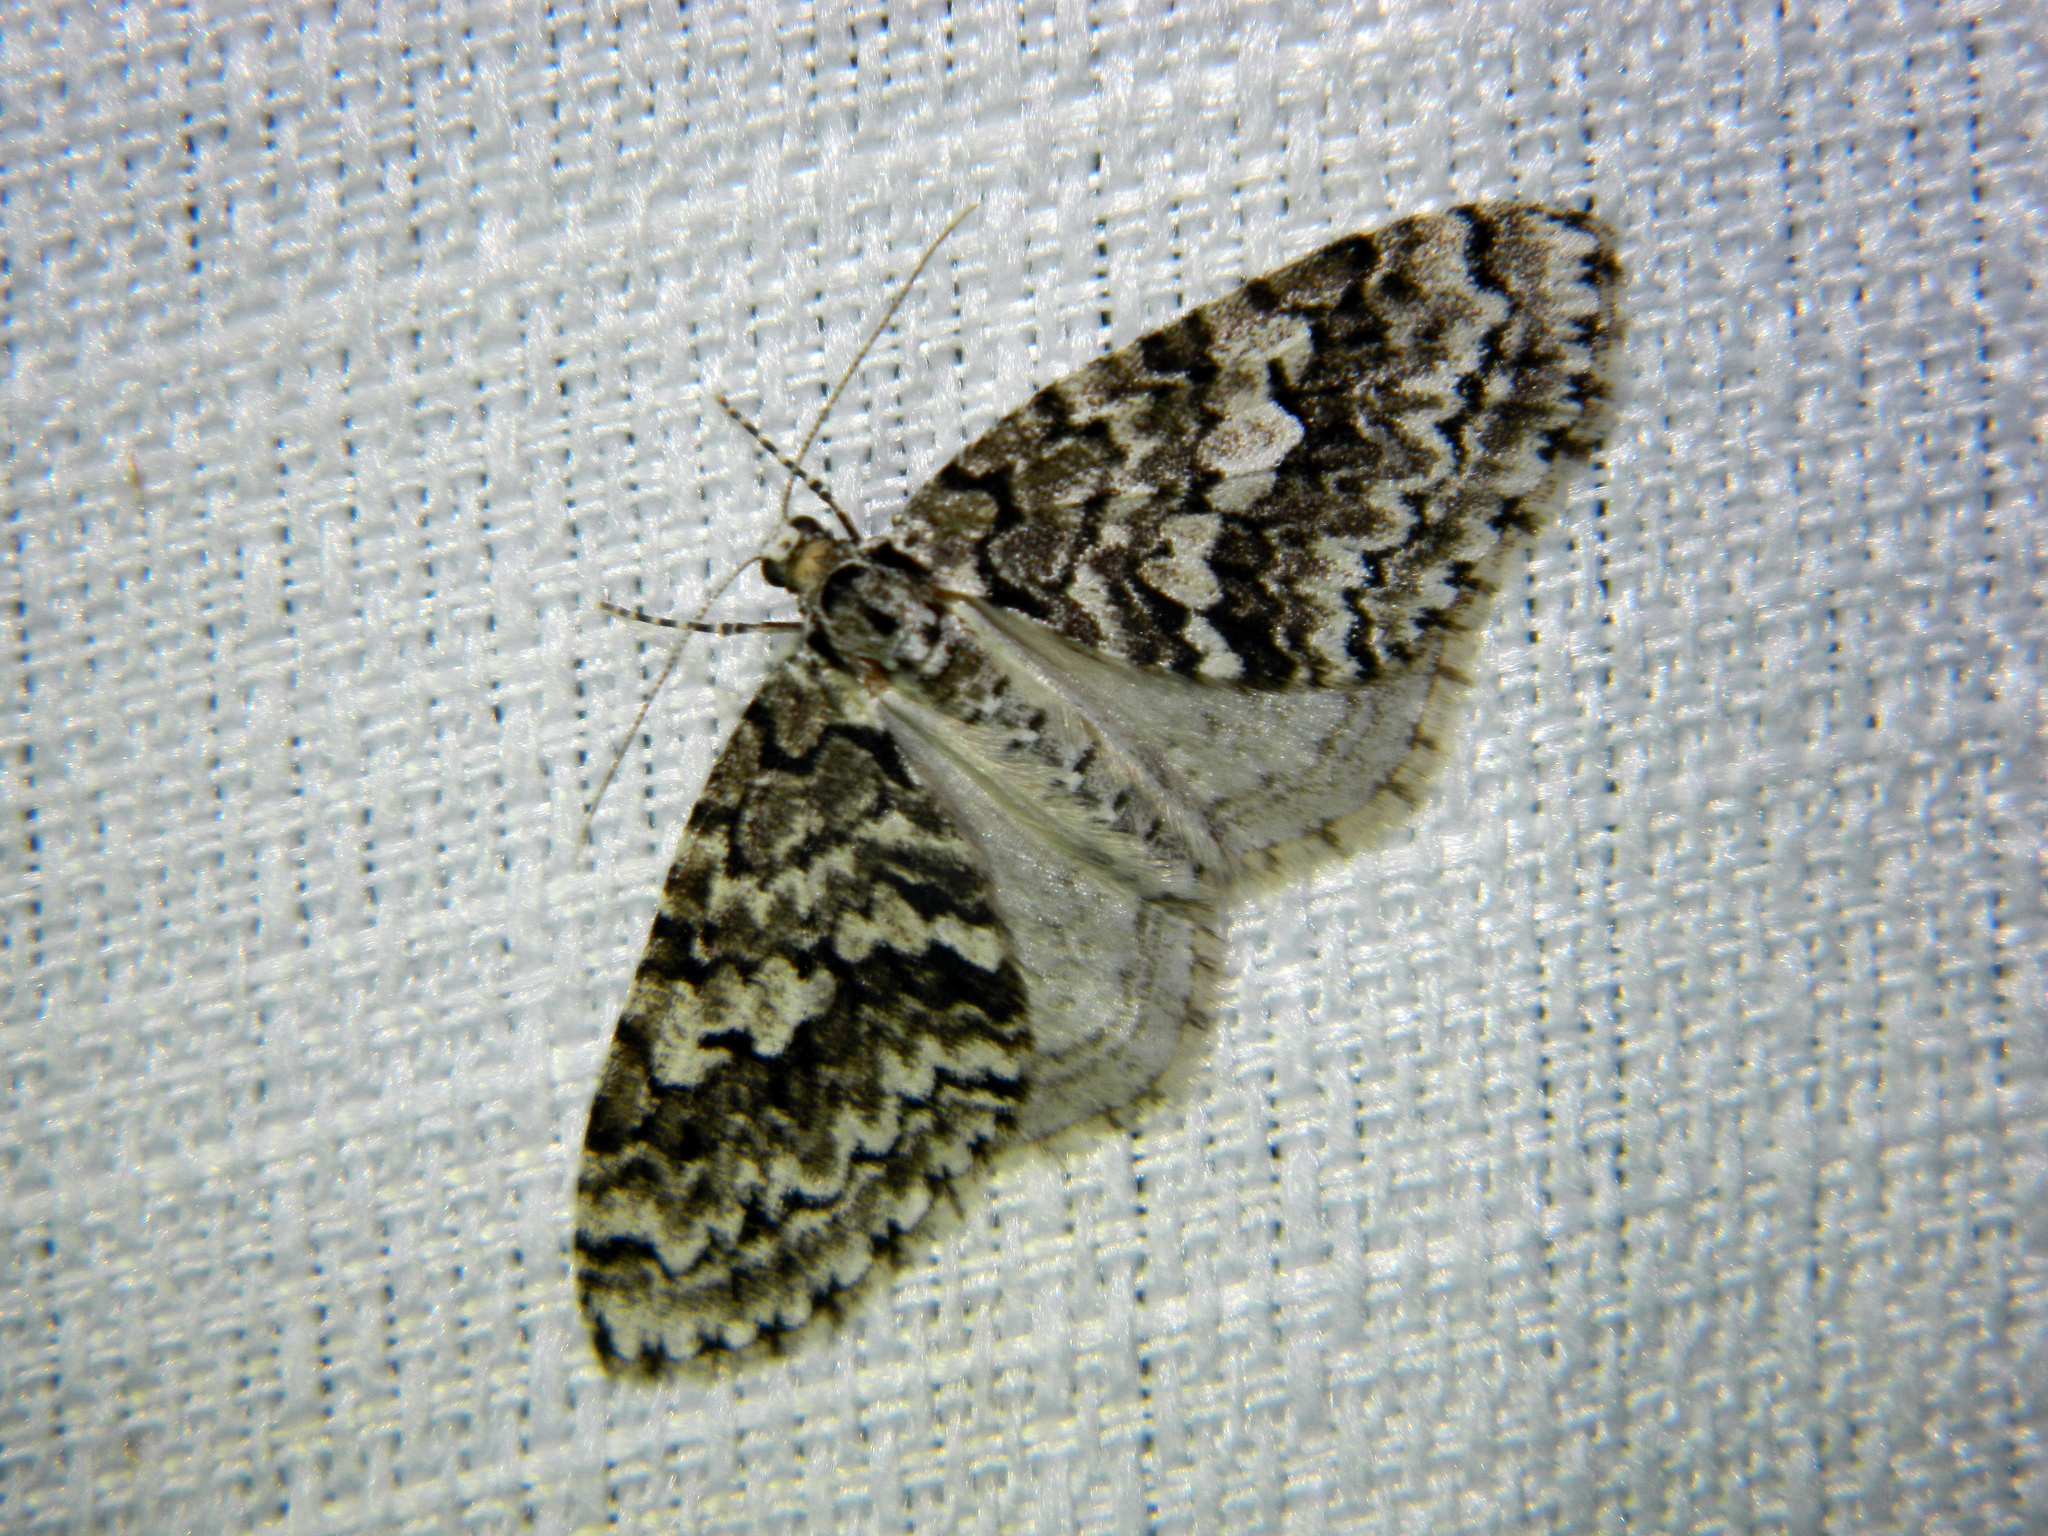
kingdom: Animalia
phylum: Arthropoda
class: Insecta
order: Lepidoptera
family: Geometridae
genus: Cladara
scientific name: Cladara atroliturata
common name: Scribbler
